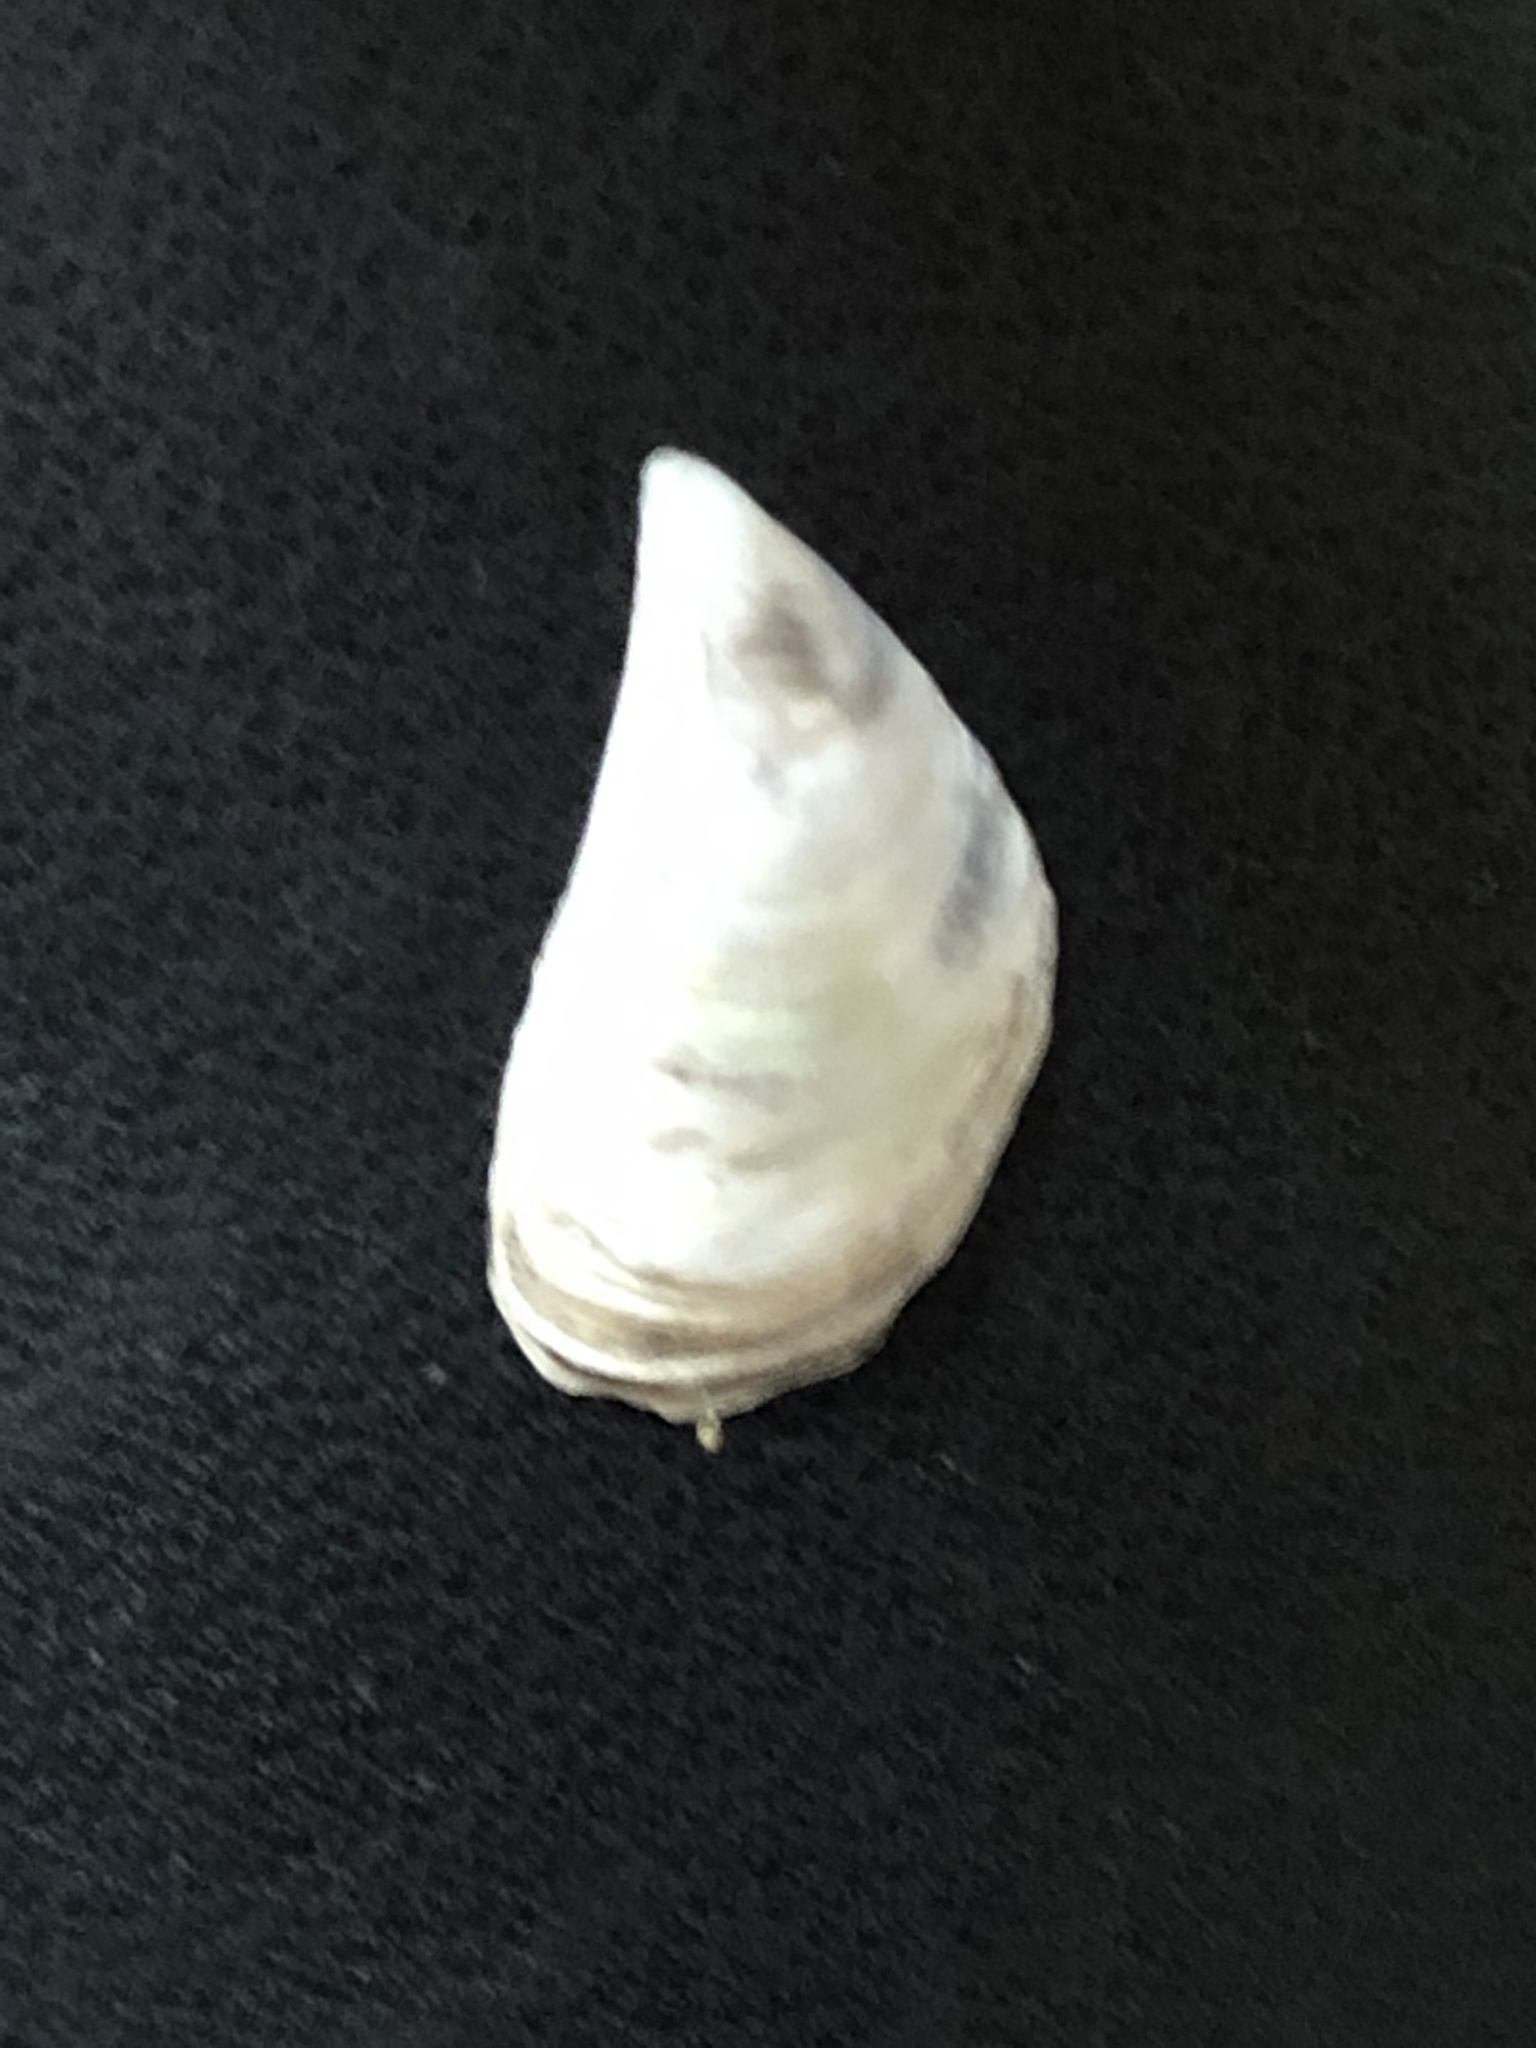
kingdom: Animalia
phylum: Mollusca
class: Bivalvia
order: Myida
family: Dreissenidae
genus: Dreissena
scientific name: Dreissena bugensis
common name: Quagga mussel
